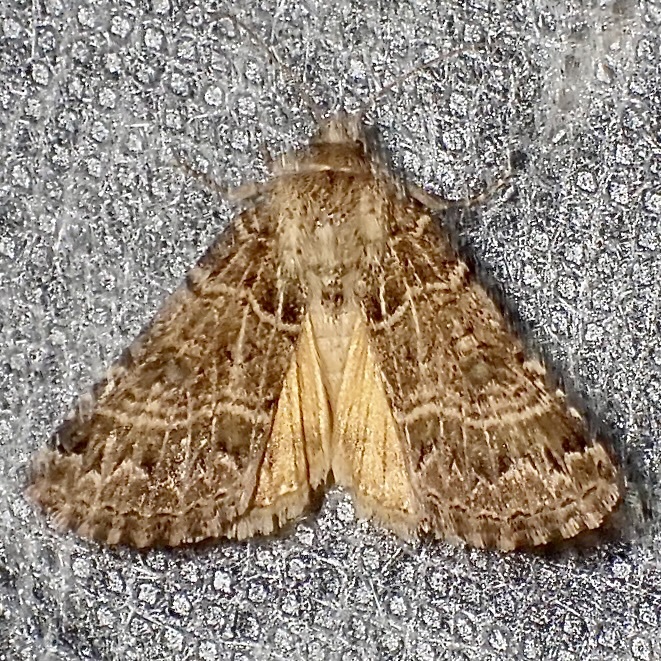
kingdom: Animalia
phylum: Arthropoda
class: Insecta
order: Lepidoptera
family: Noctuidae
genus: Schinia
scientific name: Schinia mexicana
